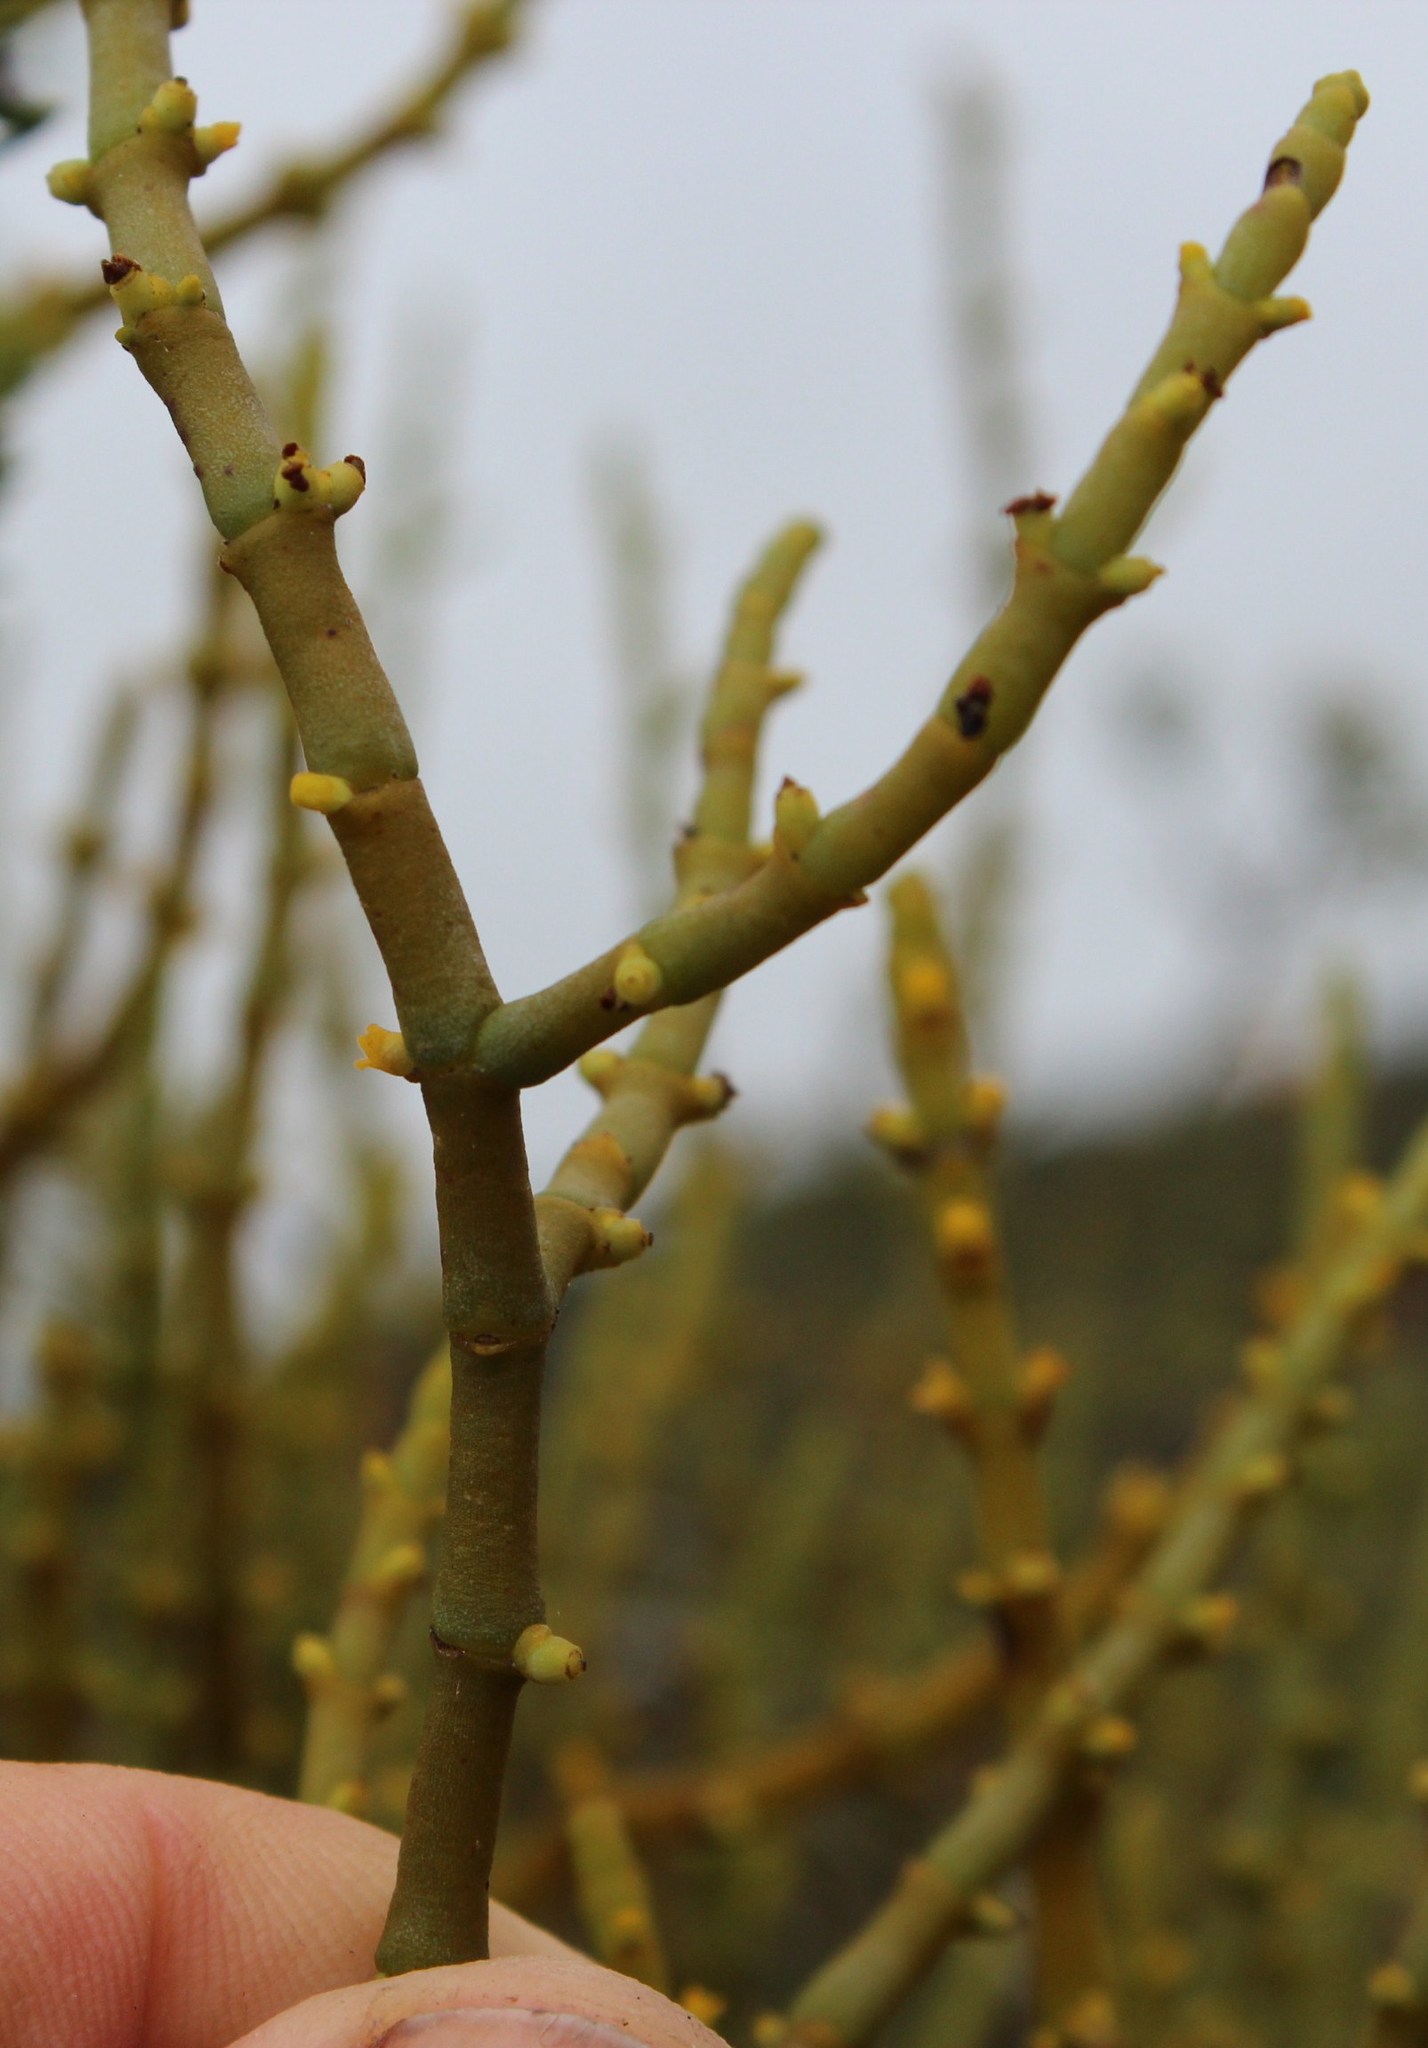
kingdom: Plantae
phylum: Tracheophyta
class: Magnoliopsida
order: Santalales
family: Viscaceae
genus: Viscum
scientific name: Viscum capense
